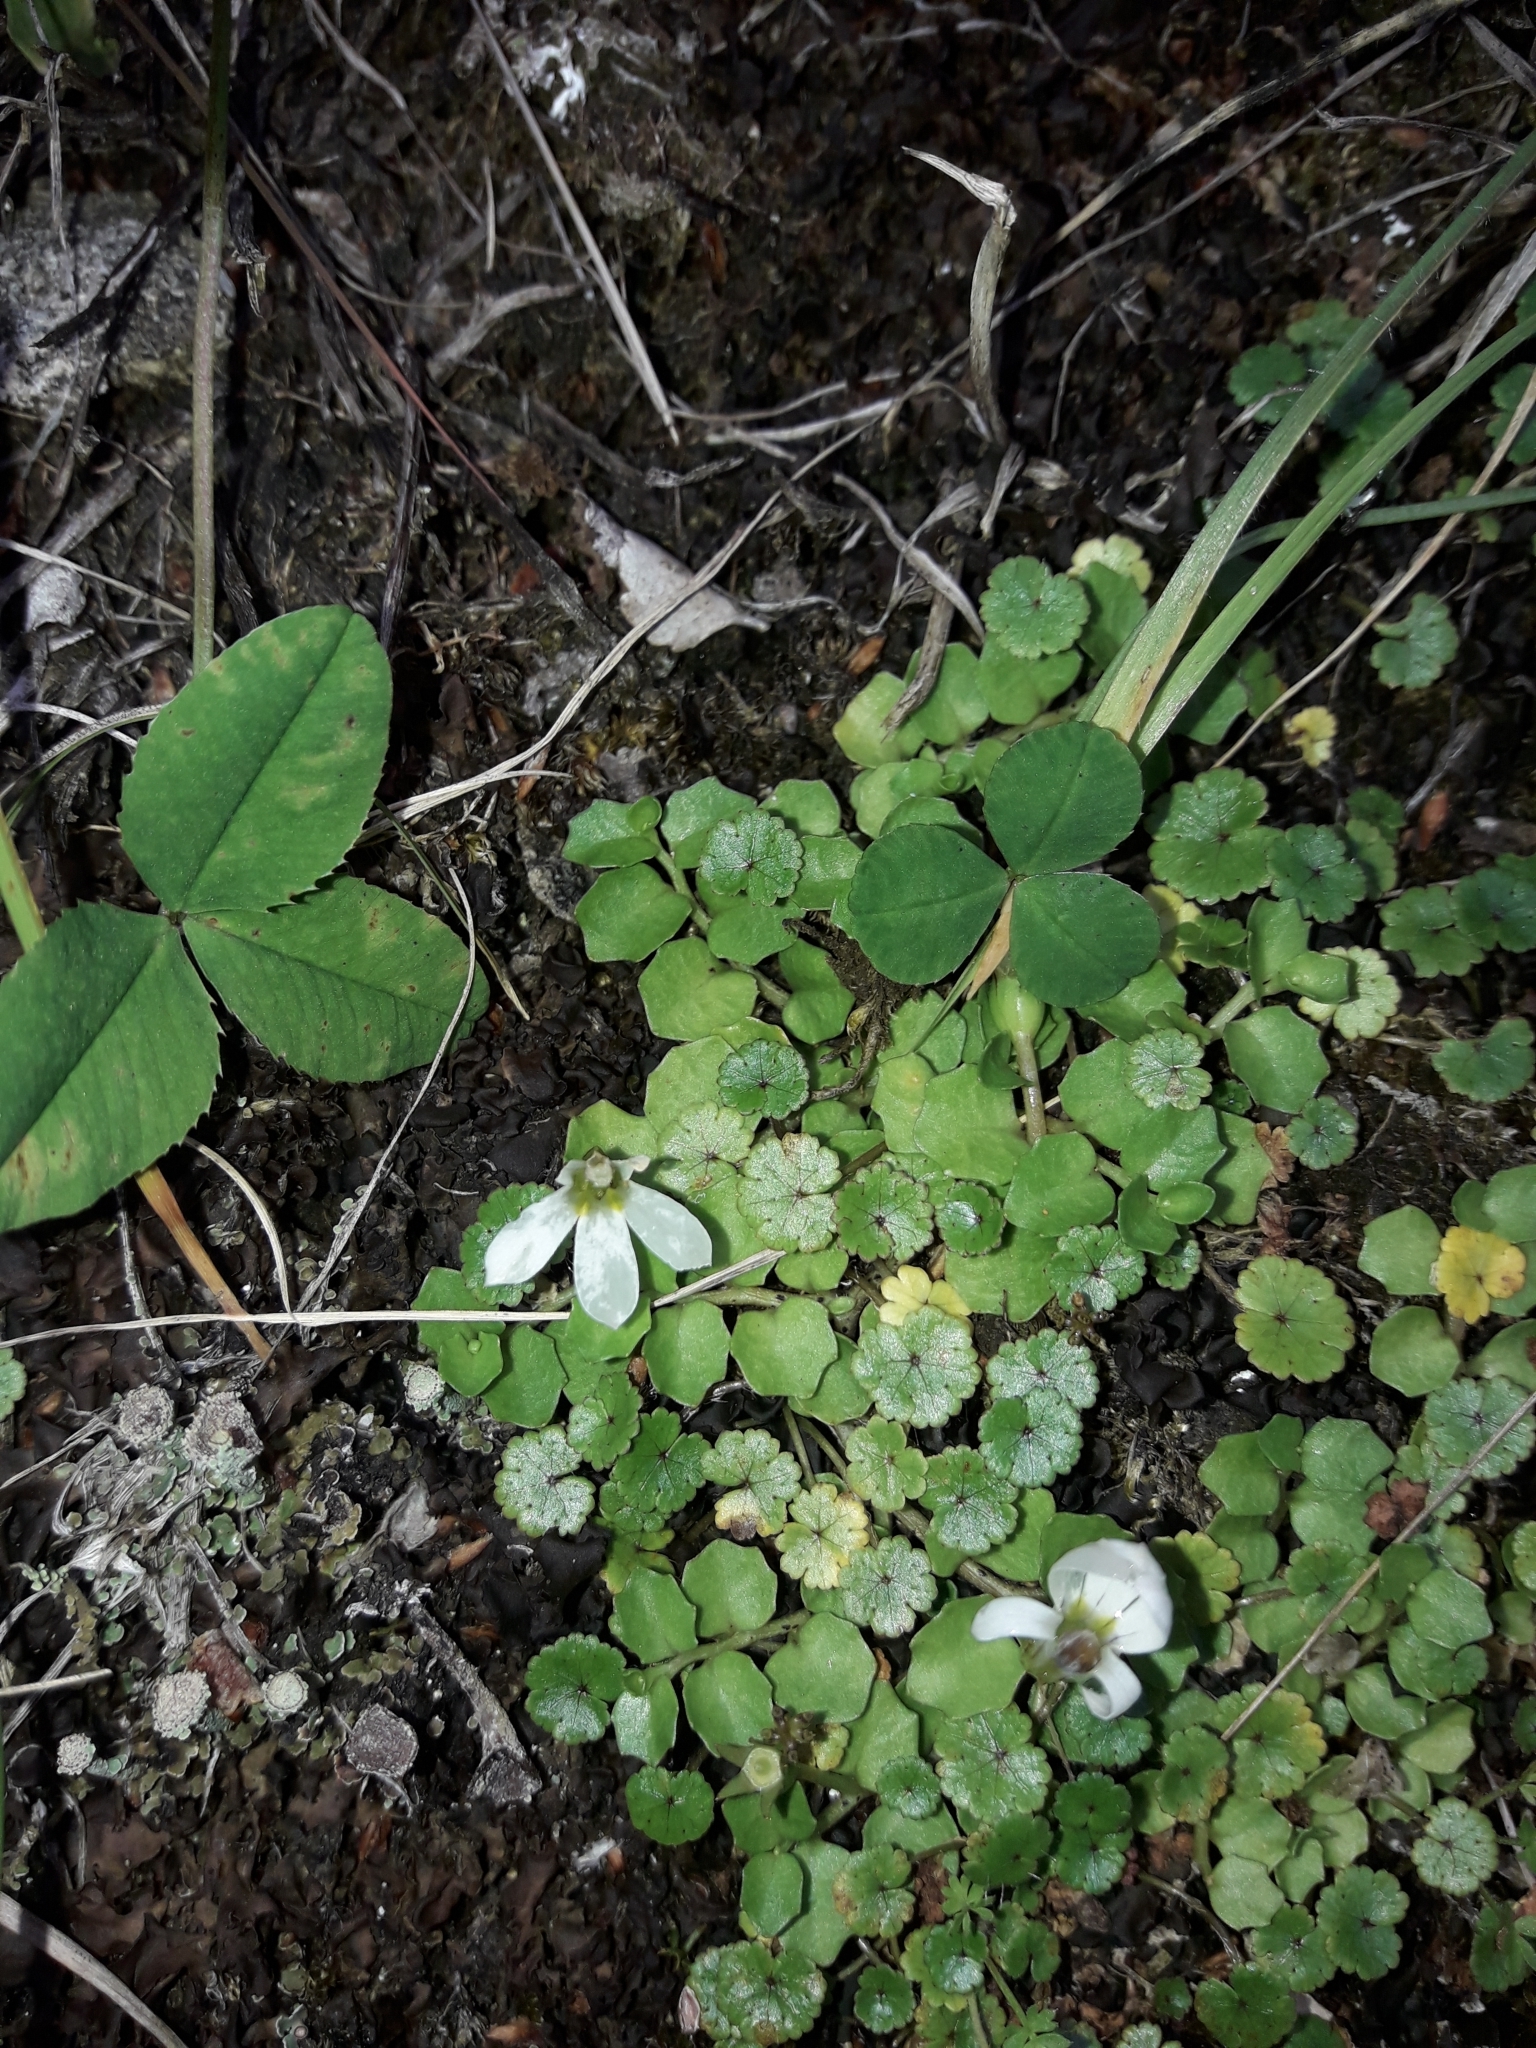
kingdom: Plantae
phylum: Tracheophyta
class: Magnoliopsida
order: Asterales
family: Campanulaceae
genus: Lobelia
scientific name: Lobelia angulata
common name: Lawn lobelia
